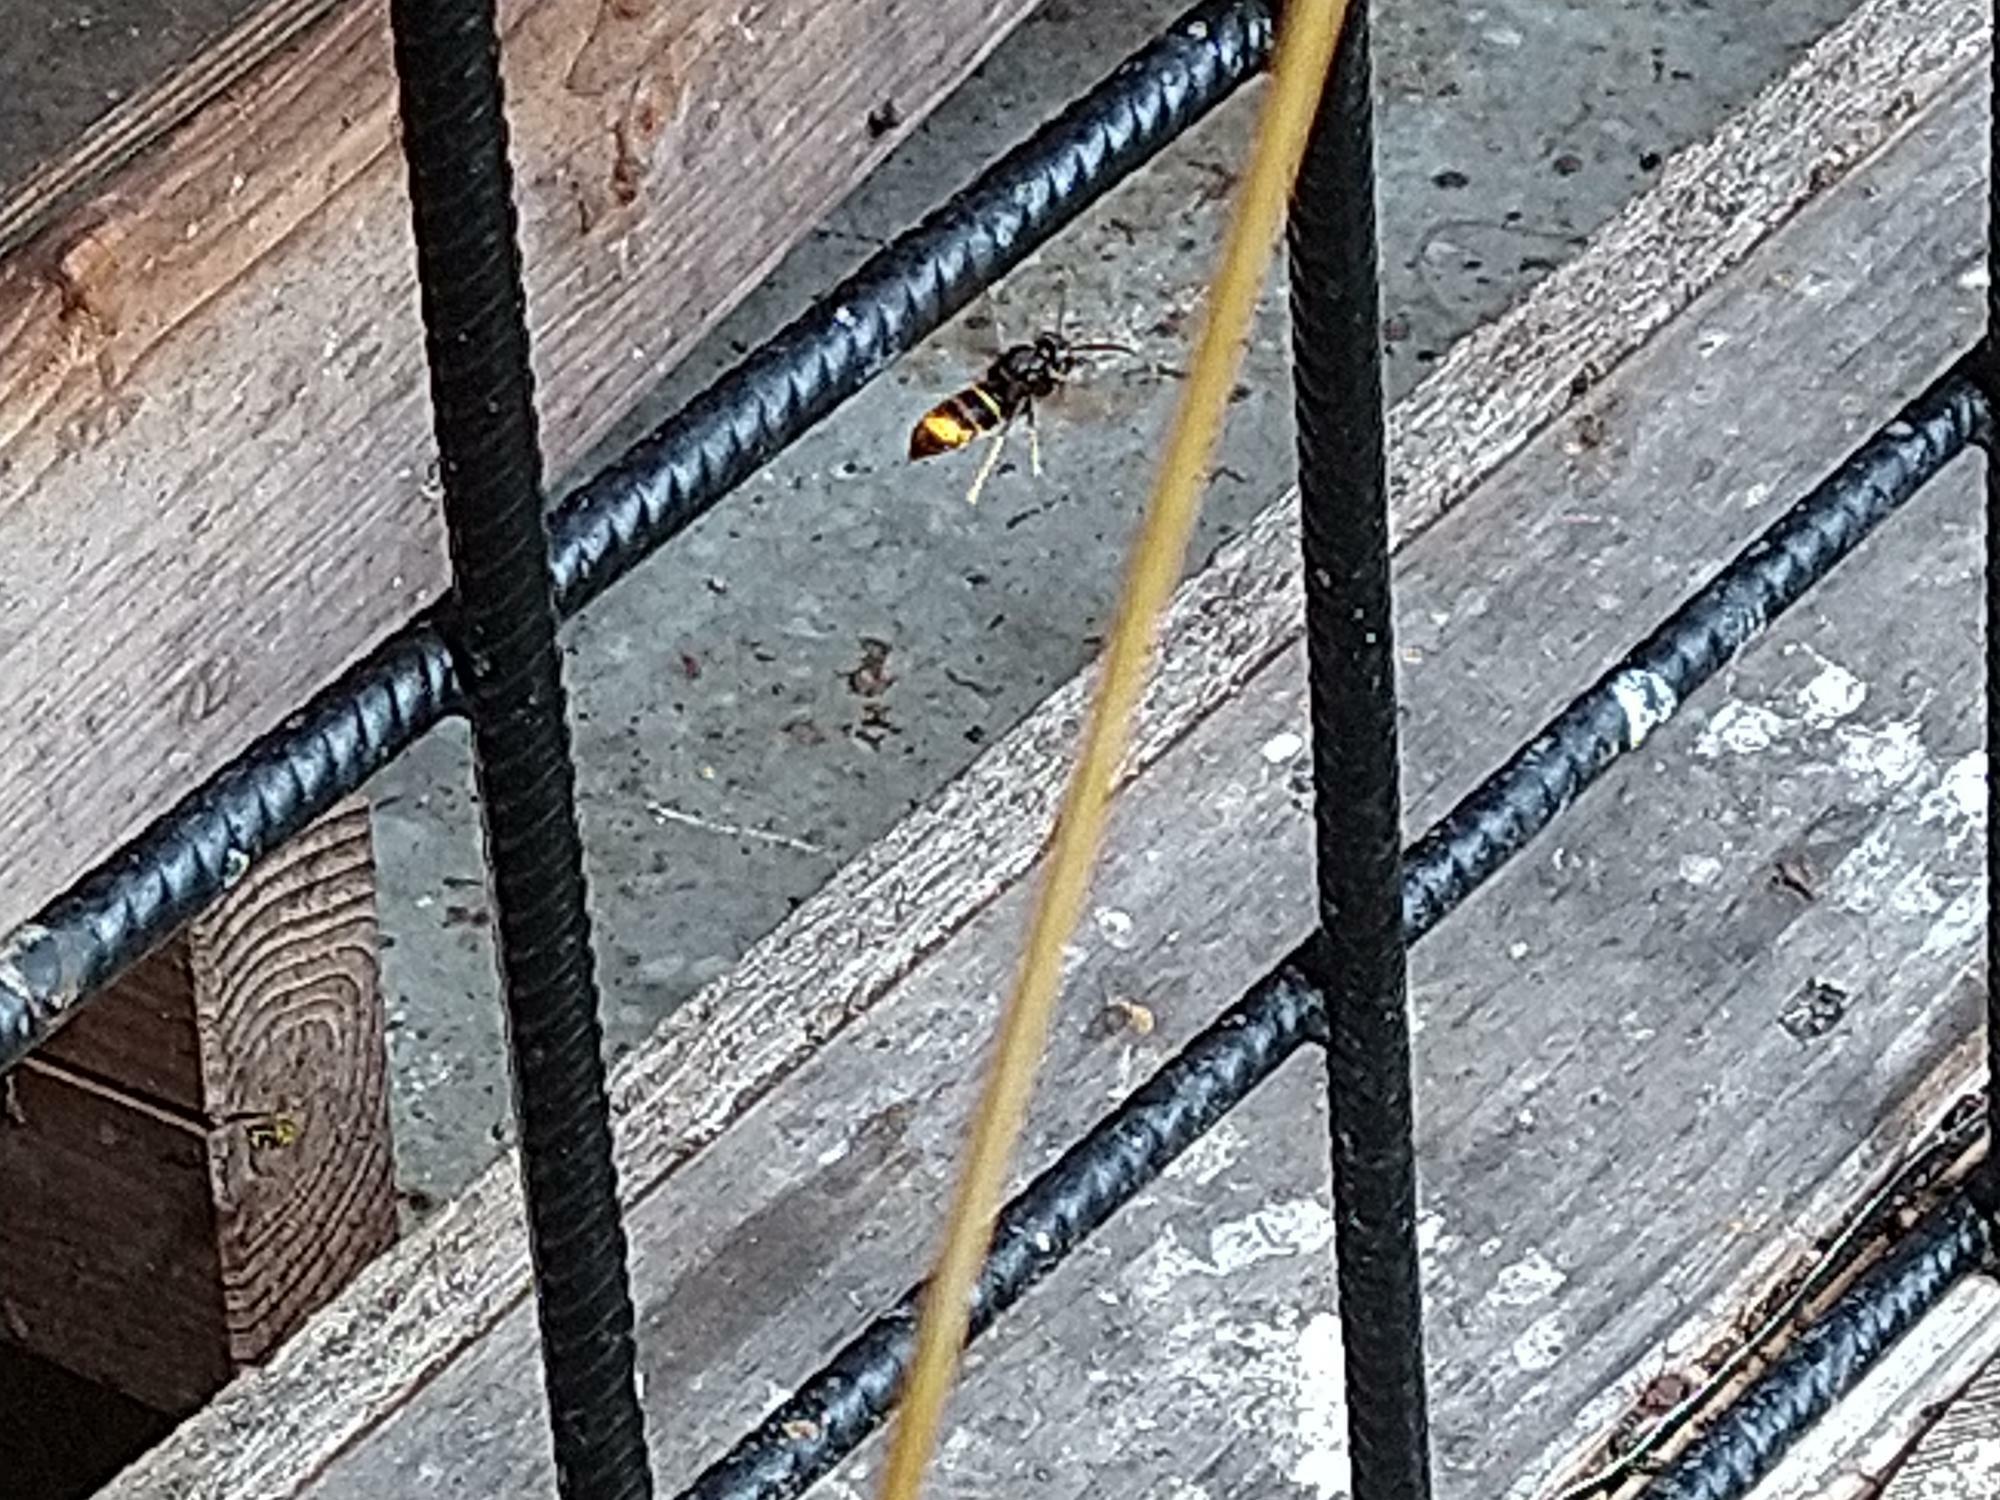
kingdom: Animalia
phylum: Arthropoda
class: Insecta
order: Hymenoptera
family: Vespidae
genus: Vespa
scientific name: Vespa velutina
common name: Asian hornet
